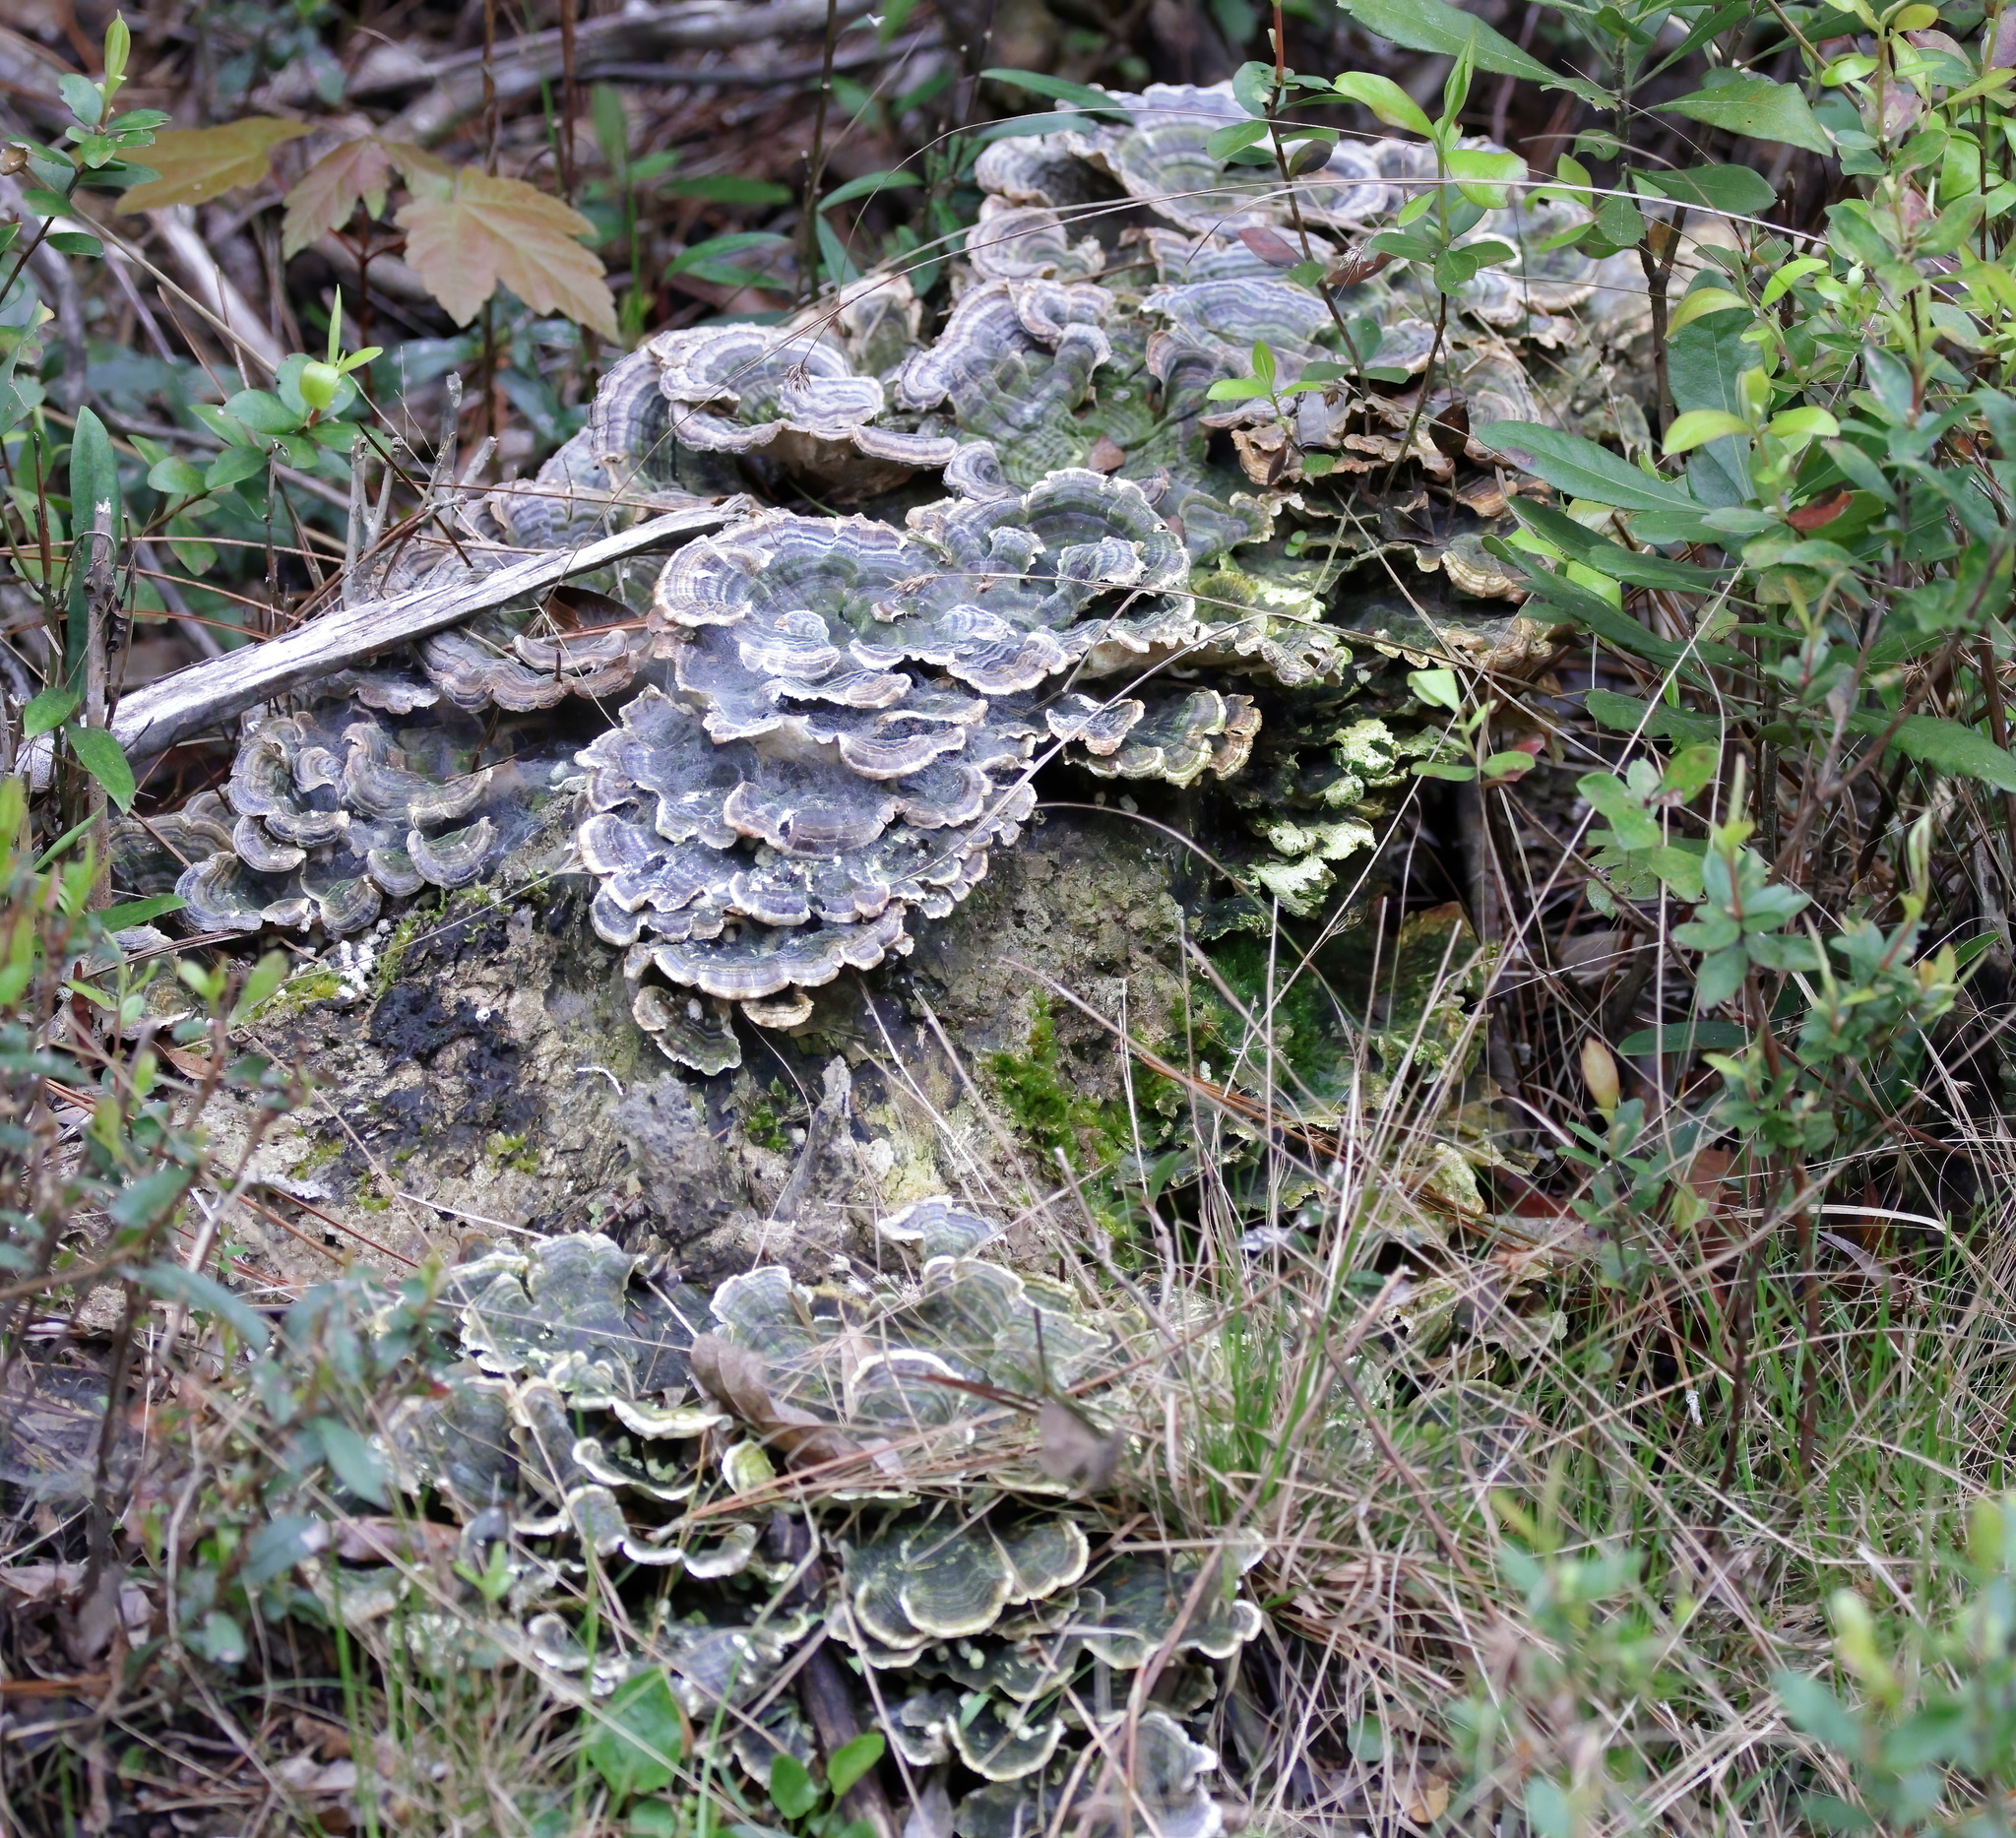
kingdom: Fungi
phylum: Basidiomycota
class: Agaricomycetes
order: Polyporales
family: Polyporaceae
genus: Trametes
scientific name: Trametes versicolor
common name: Turkeytail
